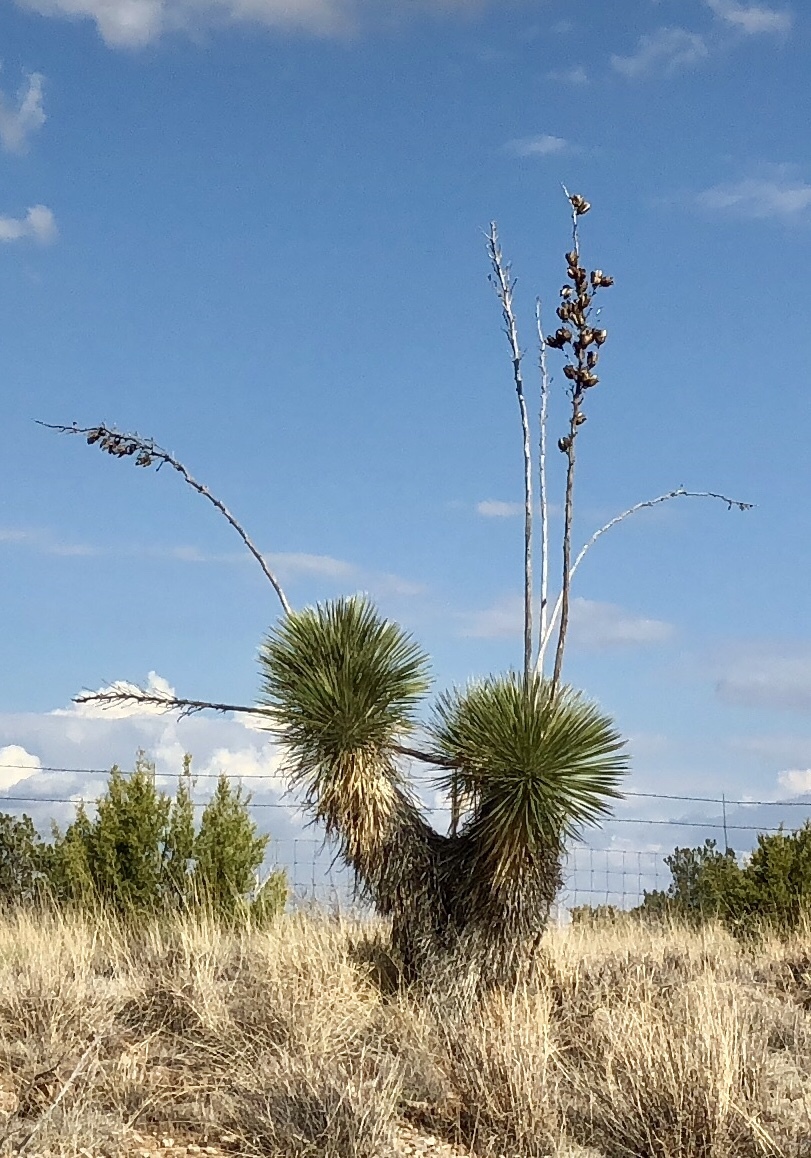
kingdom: Plantae
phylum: Tracheophyta
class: Liliopsida
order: Asparagales
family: Asparagaceae
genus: Yucca
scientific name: Yucca elata
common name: Palmella
